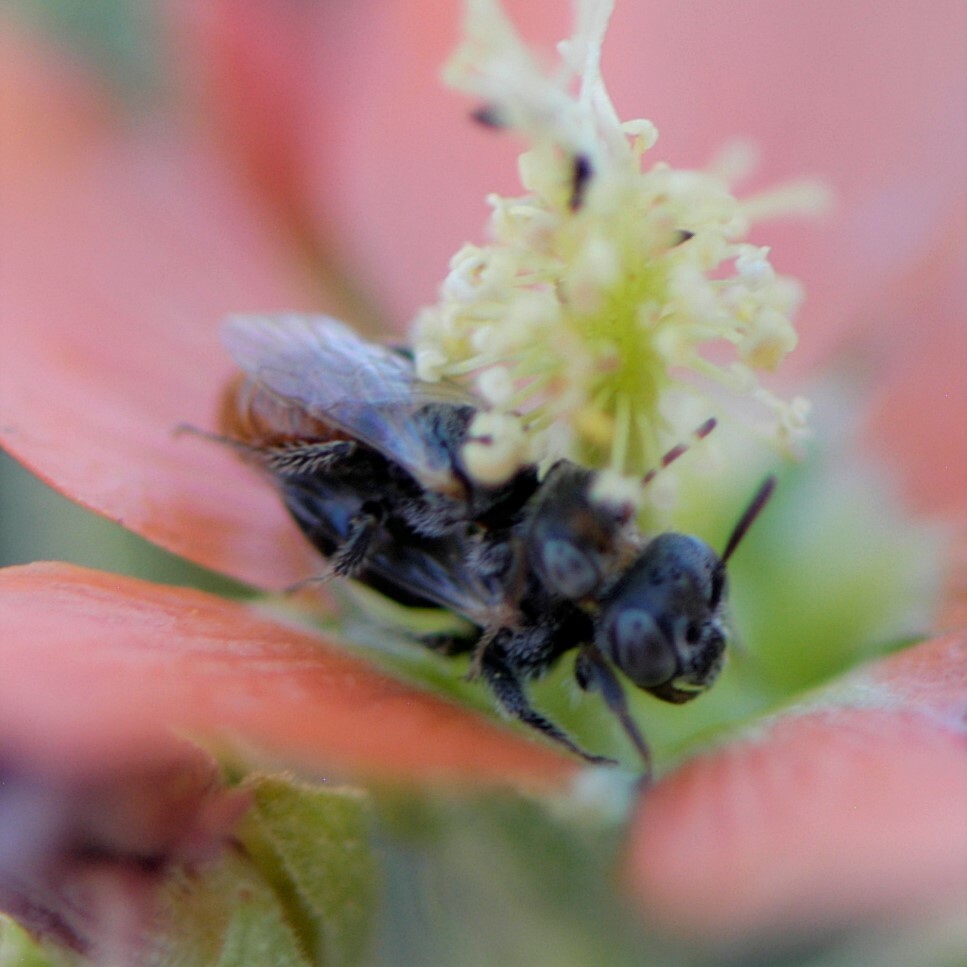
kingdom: Animalia
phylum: Arthropoda
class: Insecta
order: Hymenoptera
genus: Macroteropsis
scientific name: Macroteropsis
